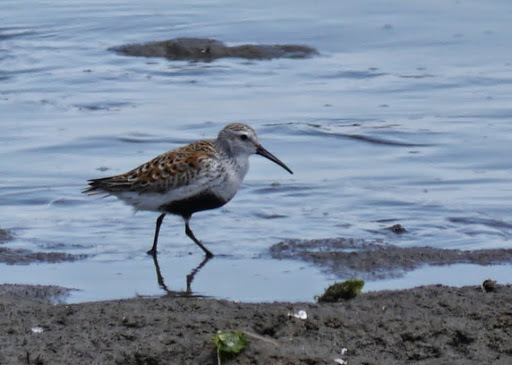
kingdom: Animalia
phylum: Chordata
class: Aves
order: Charadriiformes
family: Scolopacidae
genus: Calidris
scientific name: Calidris alpina
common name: Dunlin
